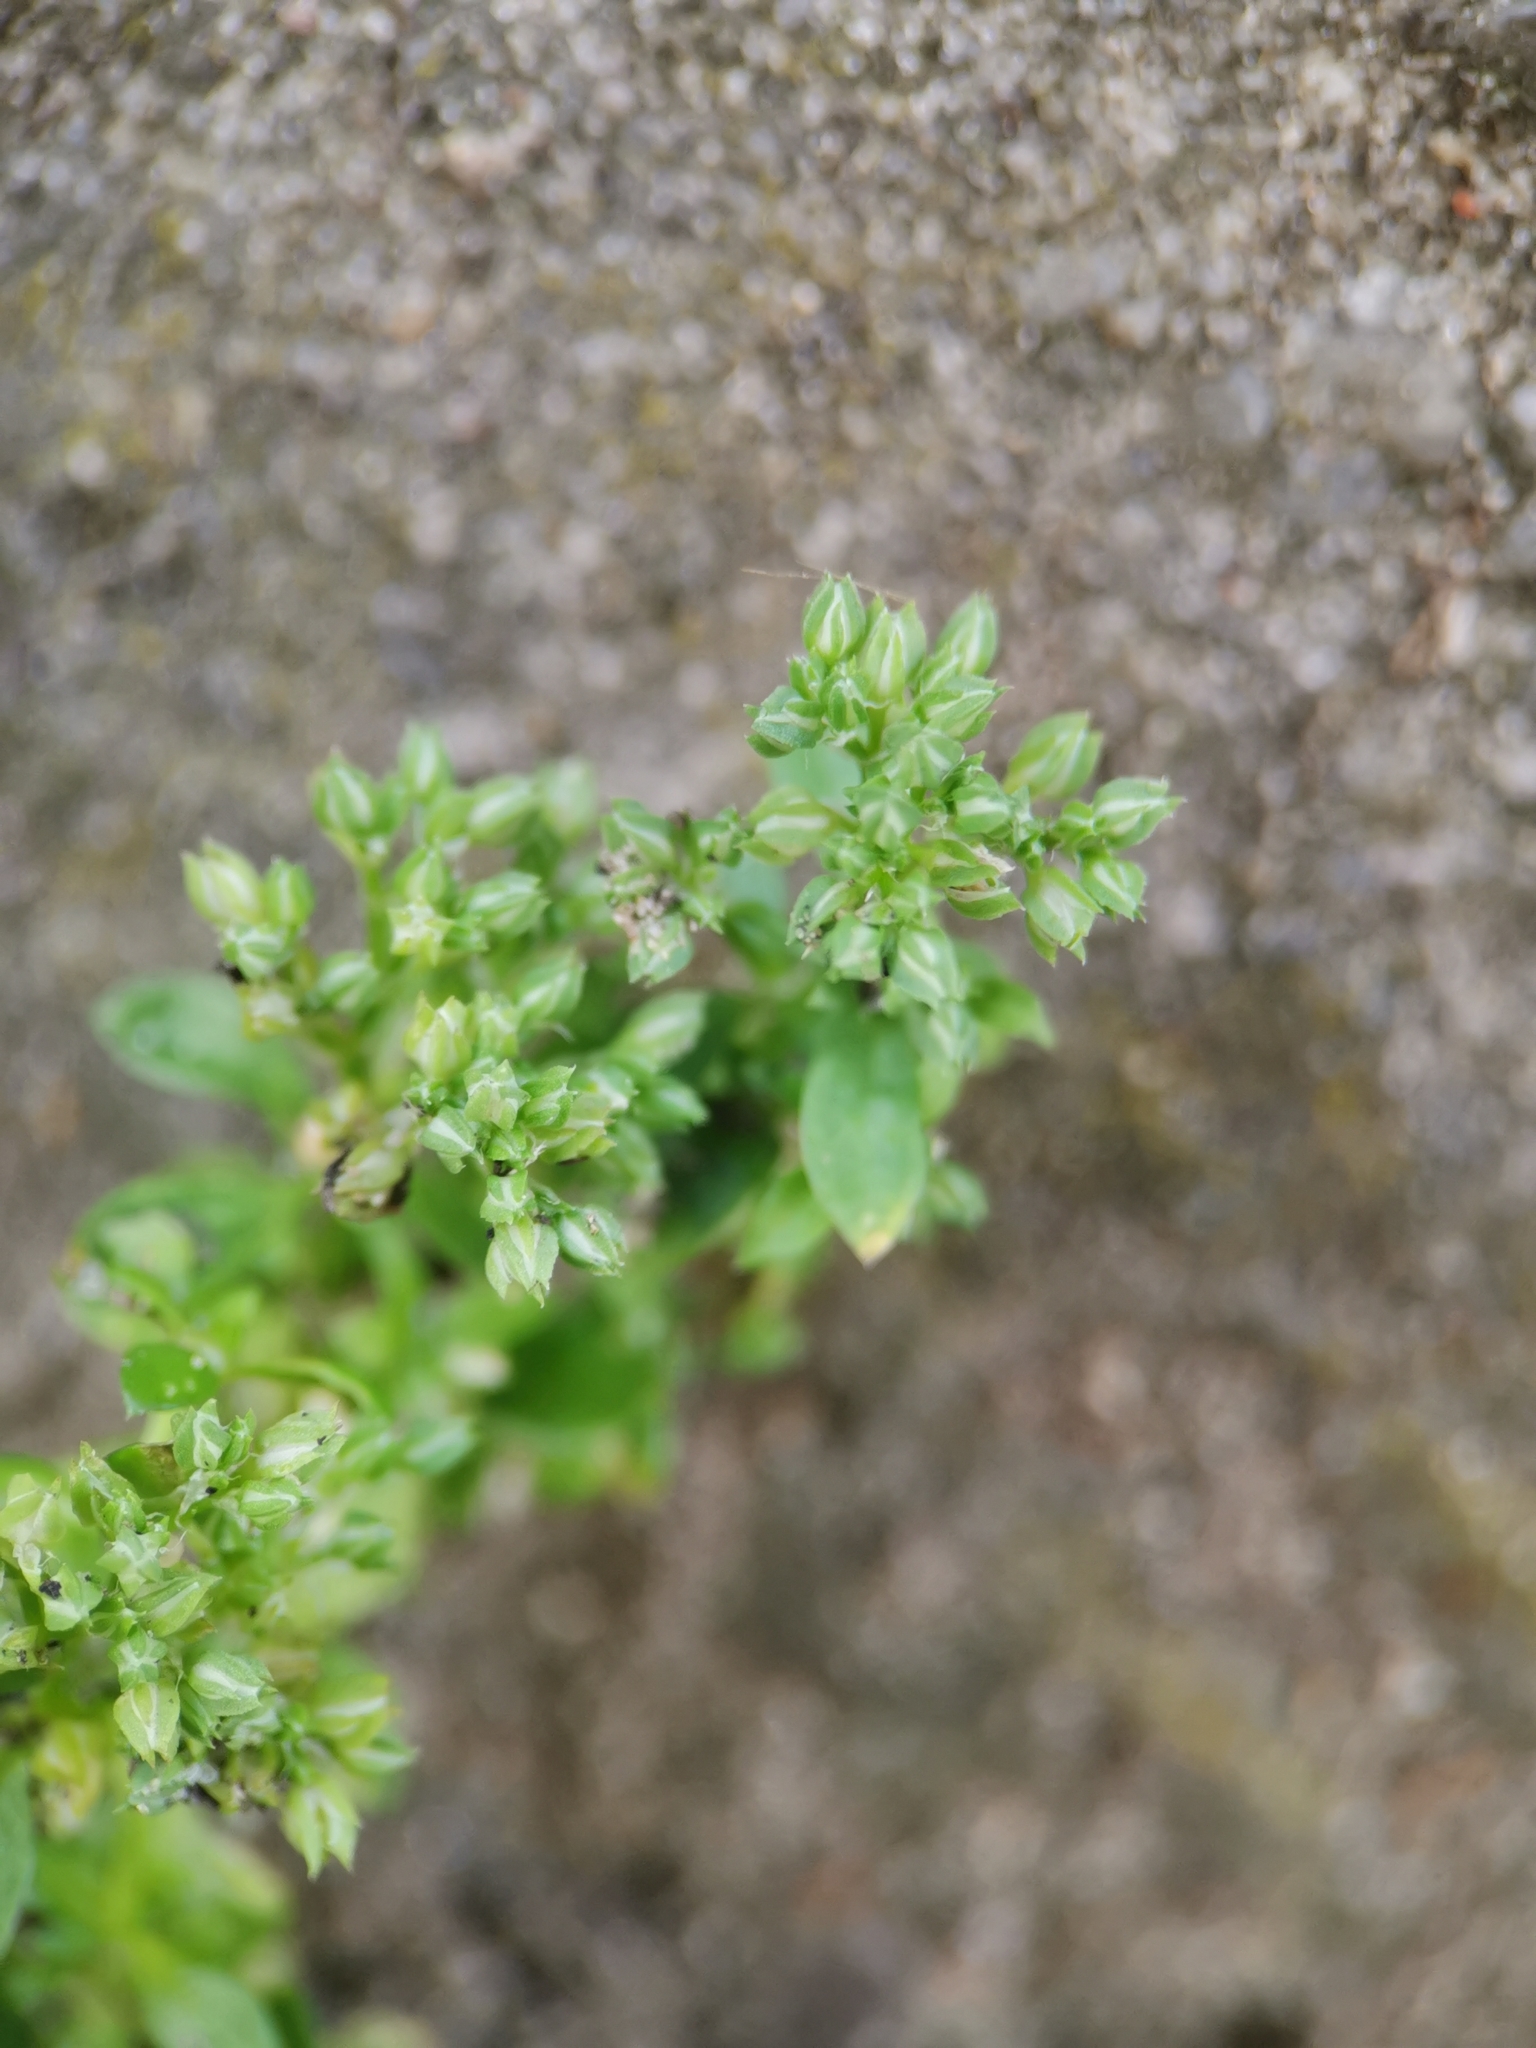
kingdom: Plantae
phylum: Tracheophyta
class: Magnoliopsida
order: Caryophyllales
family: Caryophyllaceae
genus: Polycarpon
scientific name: Polycarpon tetraphyllum
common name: Four-leaved all-seed
